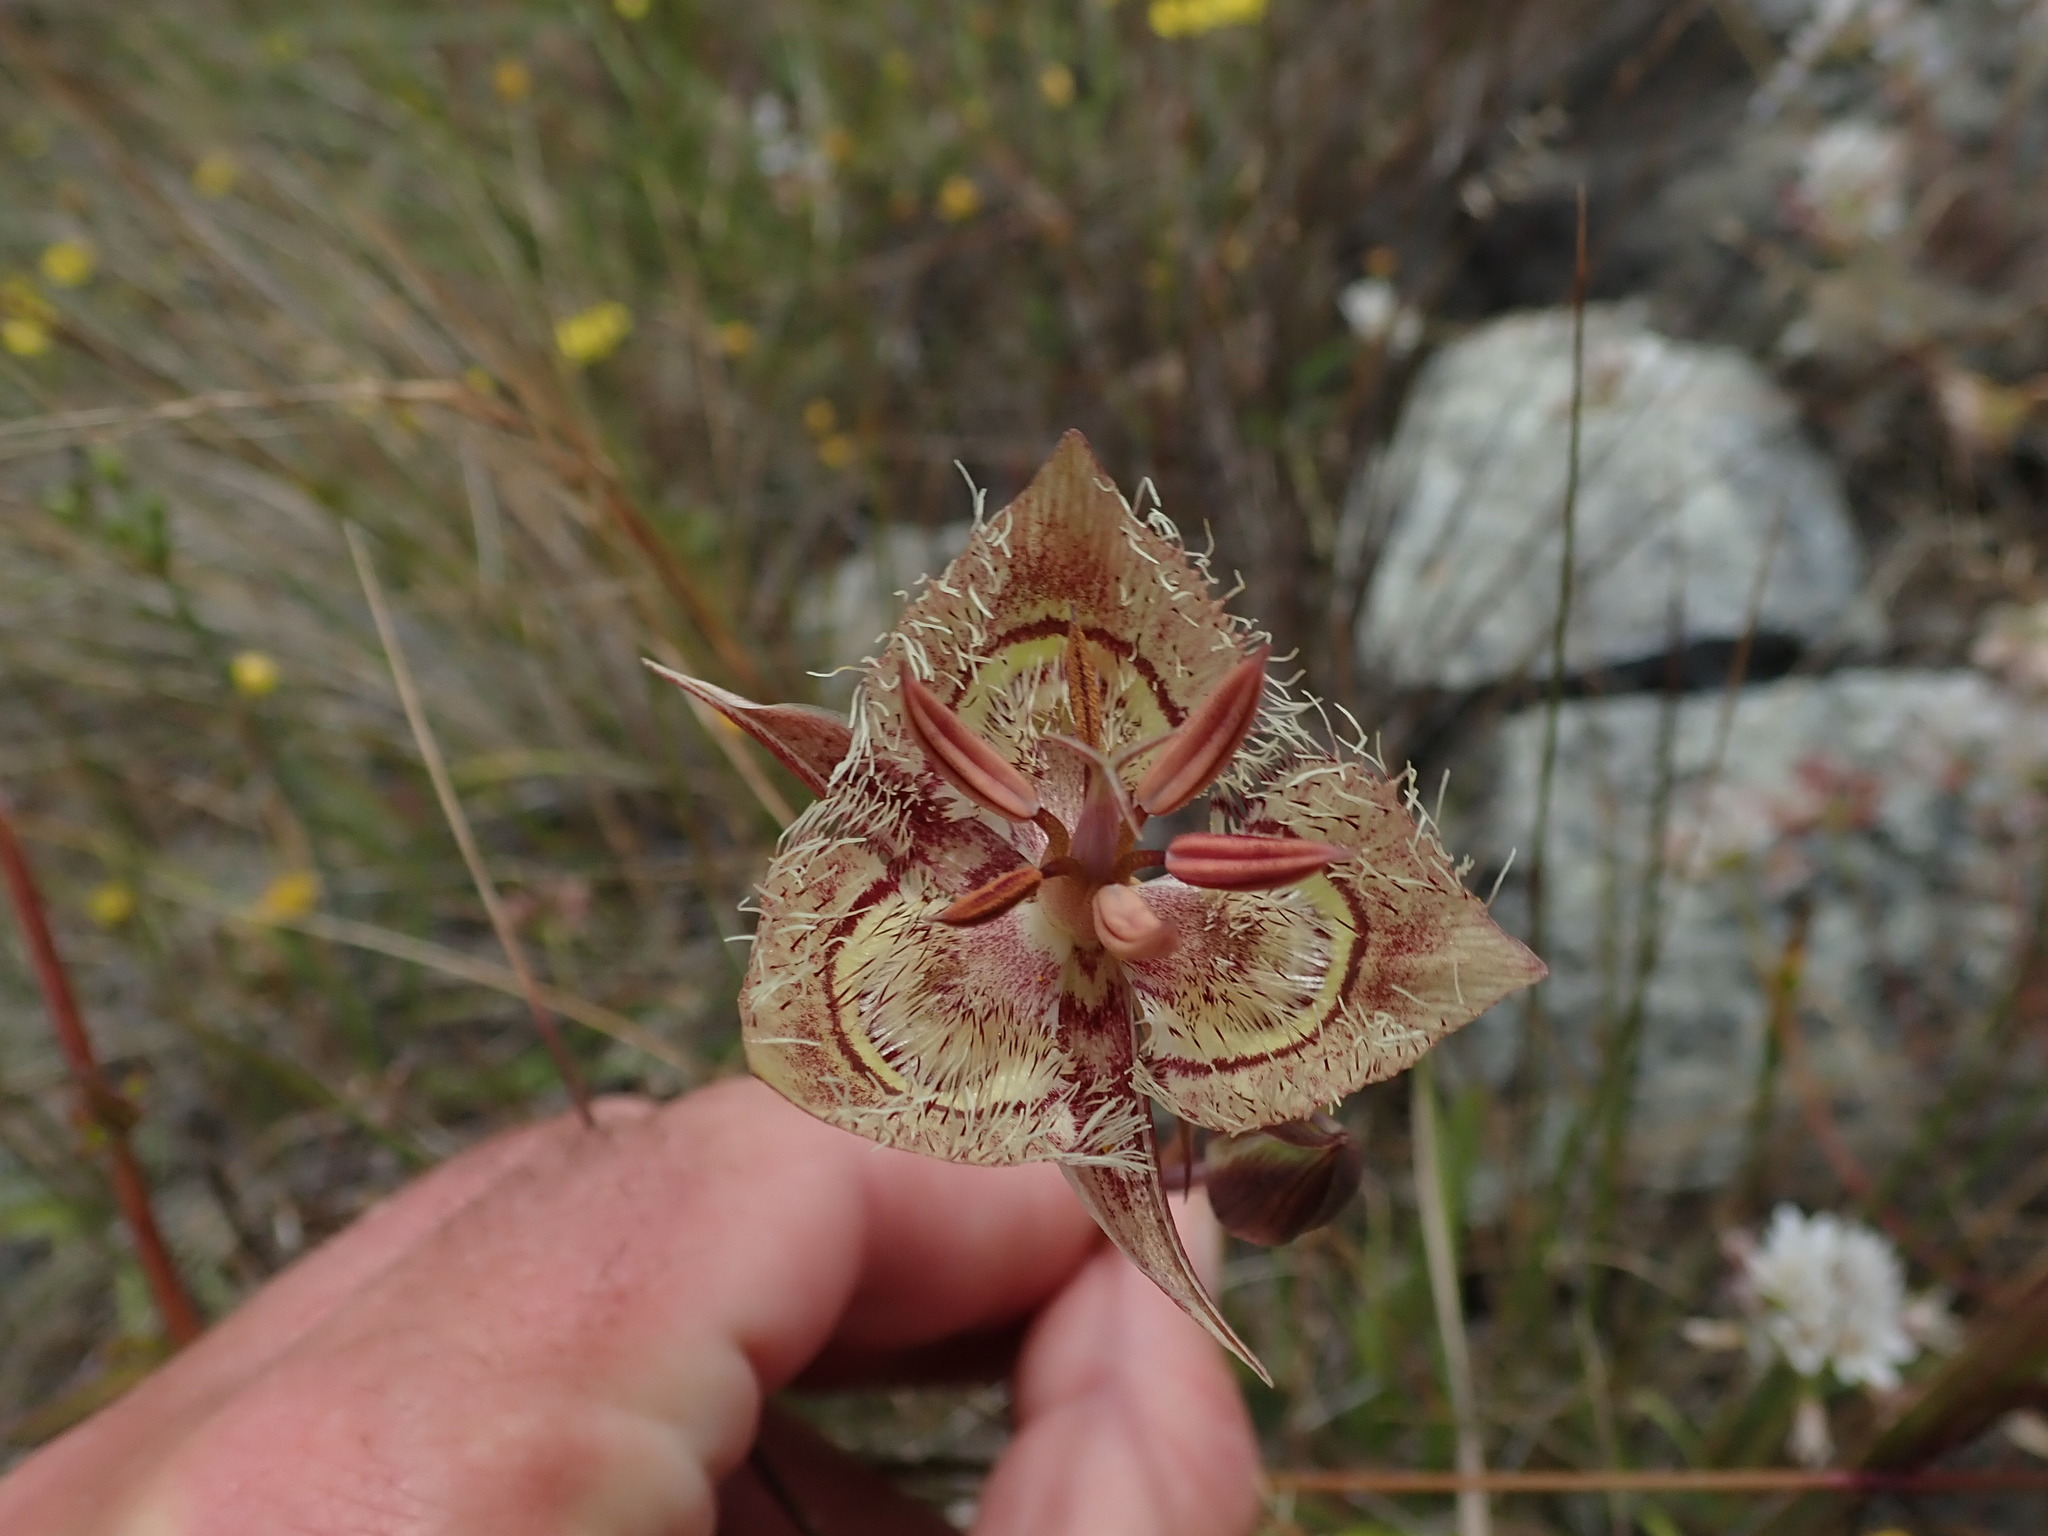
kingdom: Plantae
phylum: Tracheophyta
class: Liliopsida
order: Liliales
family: Liliaceae
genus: Calochortus
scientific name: Calochortus tiburonensis
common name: Tiburon mariposa-lily
